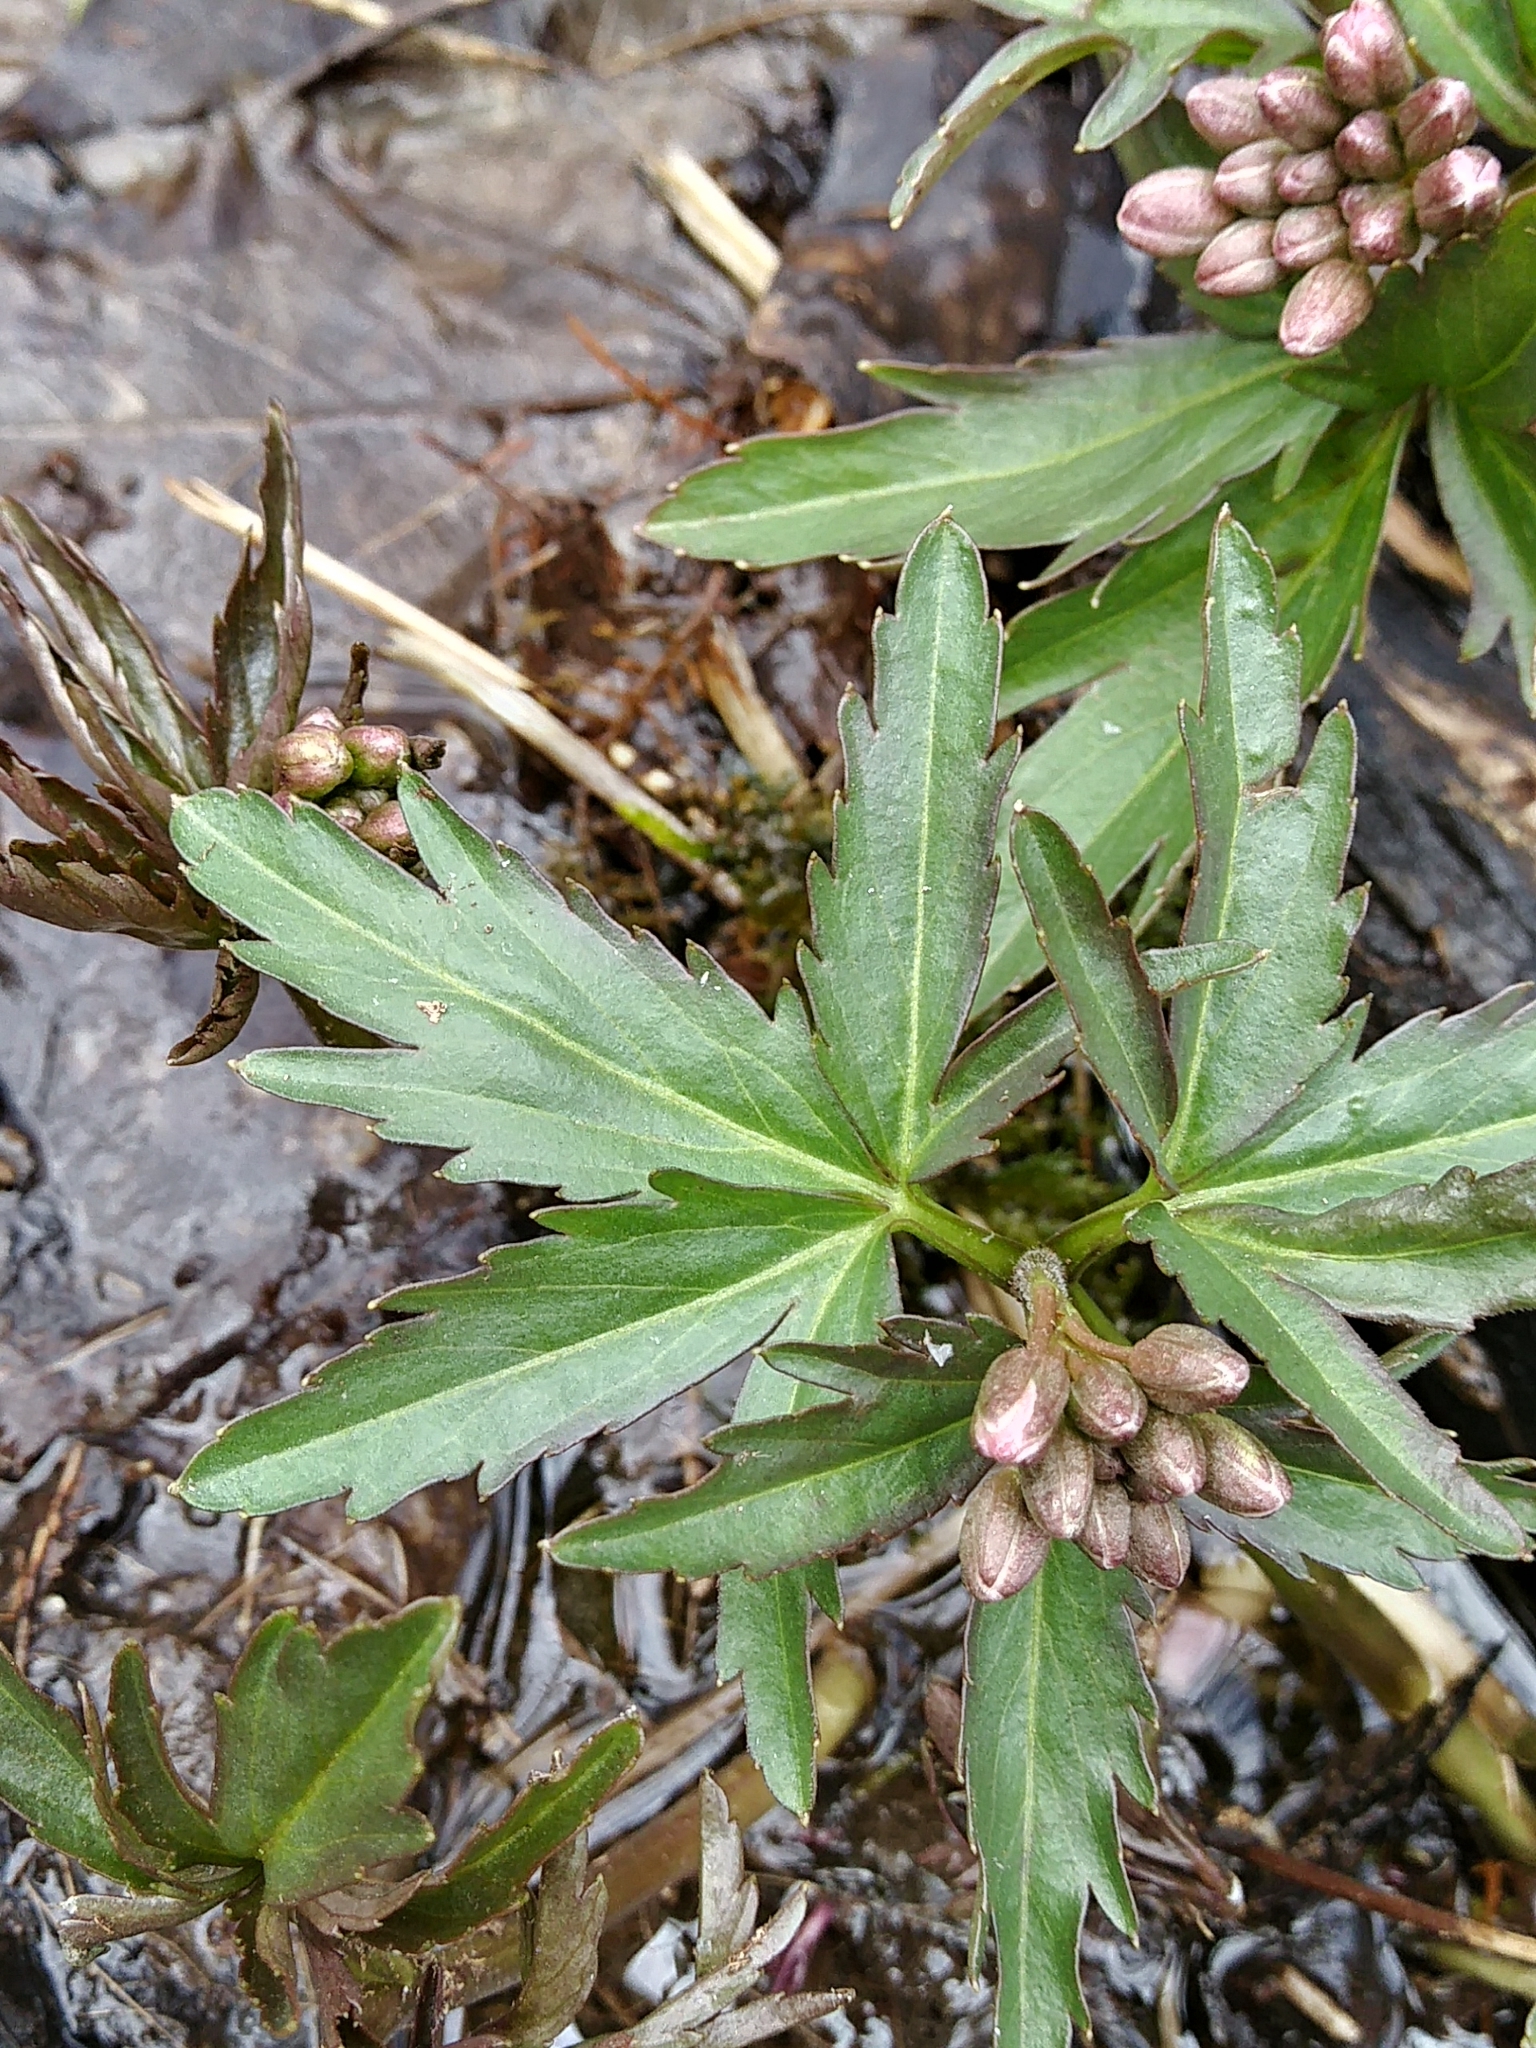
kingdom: Plantae
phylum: Tracheophyta
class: Magnoliopsida
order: Brassicales
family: Brassicaceae
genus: Cardamine
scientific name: Cardamine concatenata
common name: Cut-leaf toothcup
